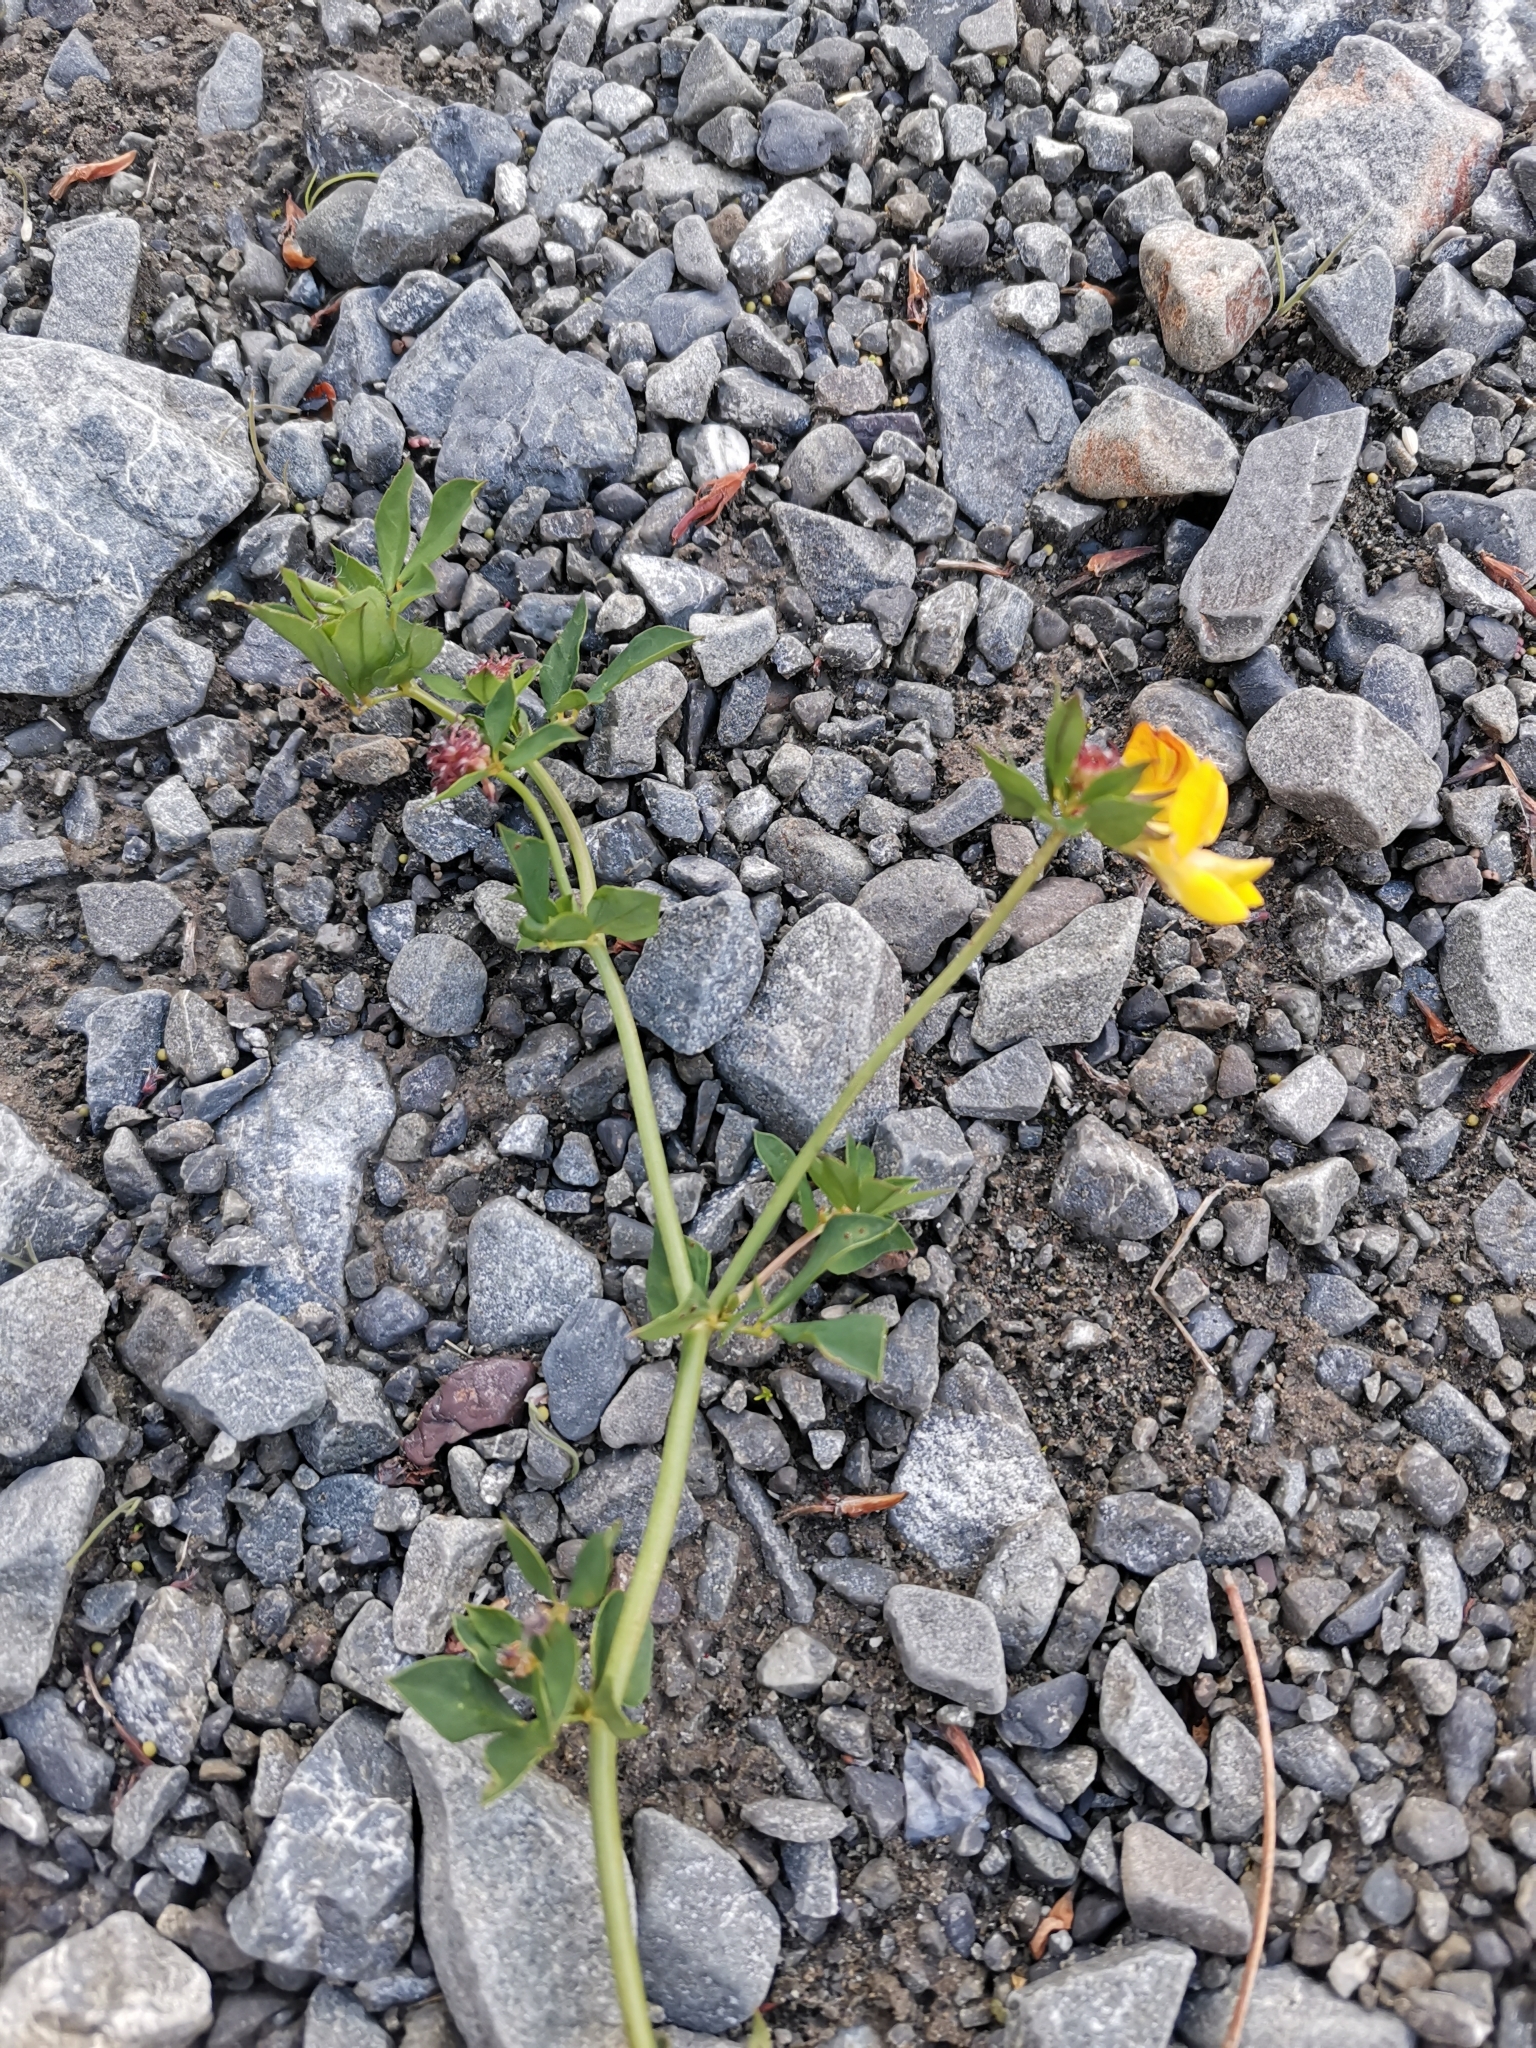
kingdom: Plantae
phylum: Tracheophyta
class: Magnoliopsida
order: Fabales
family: Fabaceae
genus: Lotus
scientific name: Lotus pedunculatus
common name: Greater birdsfoot-trefoil
